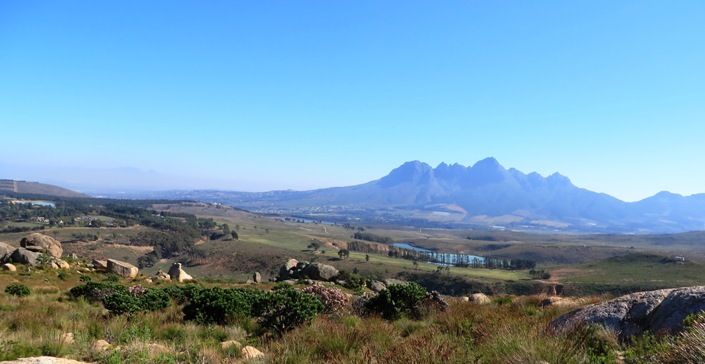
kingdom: Plantae
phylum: Tracheophyta
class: Magnoliopsida
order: Proteales
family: Proteaceae
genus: Leucospermum
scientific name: Leucospermum conocarpodendron
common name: Tree pincushion
